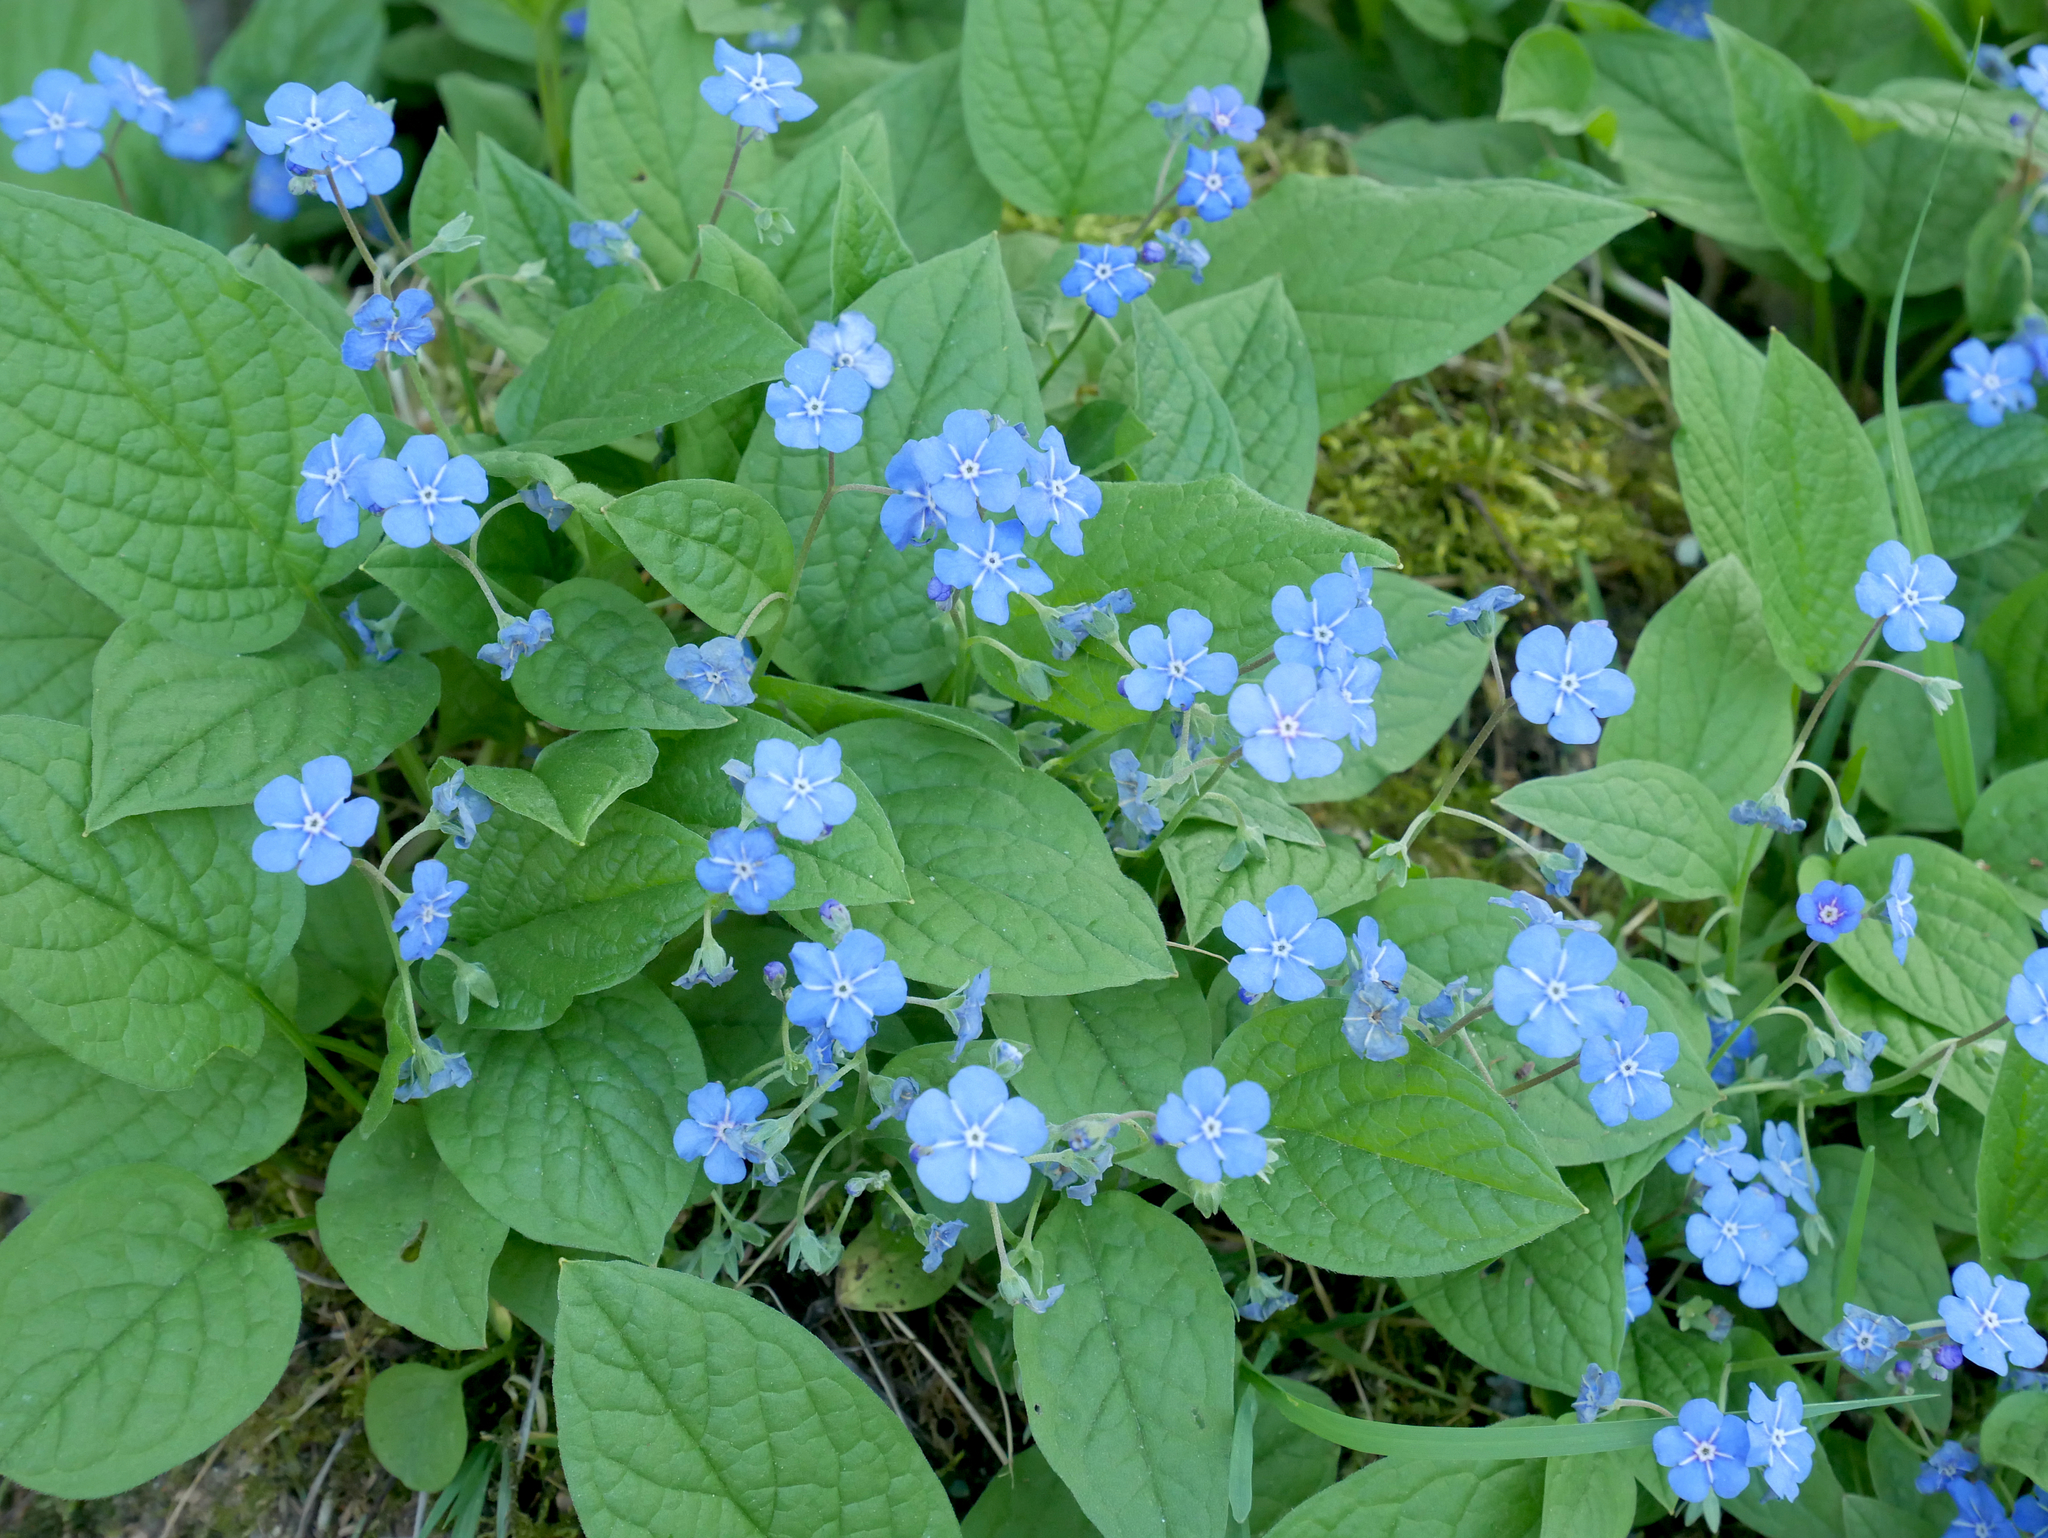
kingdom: Plantae
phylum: Tracheophyta
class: Magnoliopsida
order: Boraginales
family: Boraginaceae
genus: Omphalodes
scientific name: Omphalodes verna
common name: Blue-eyed-mary
